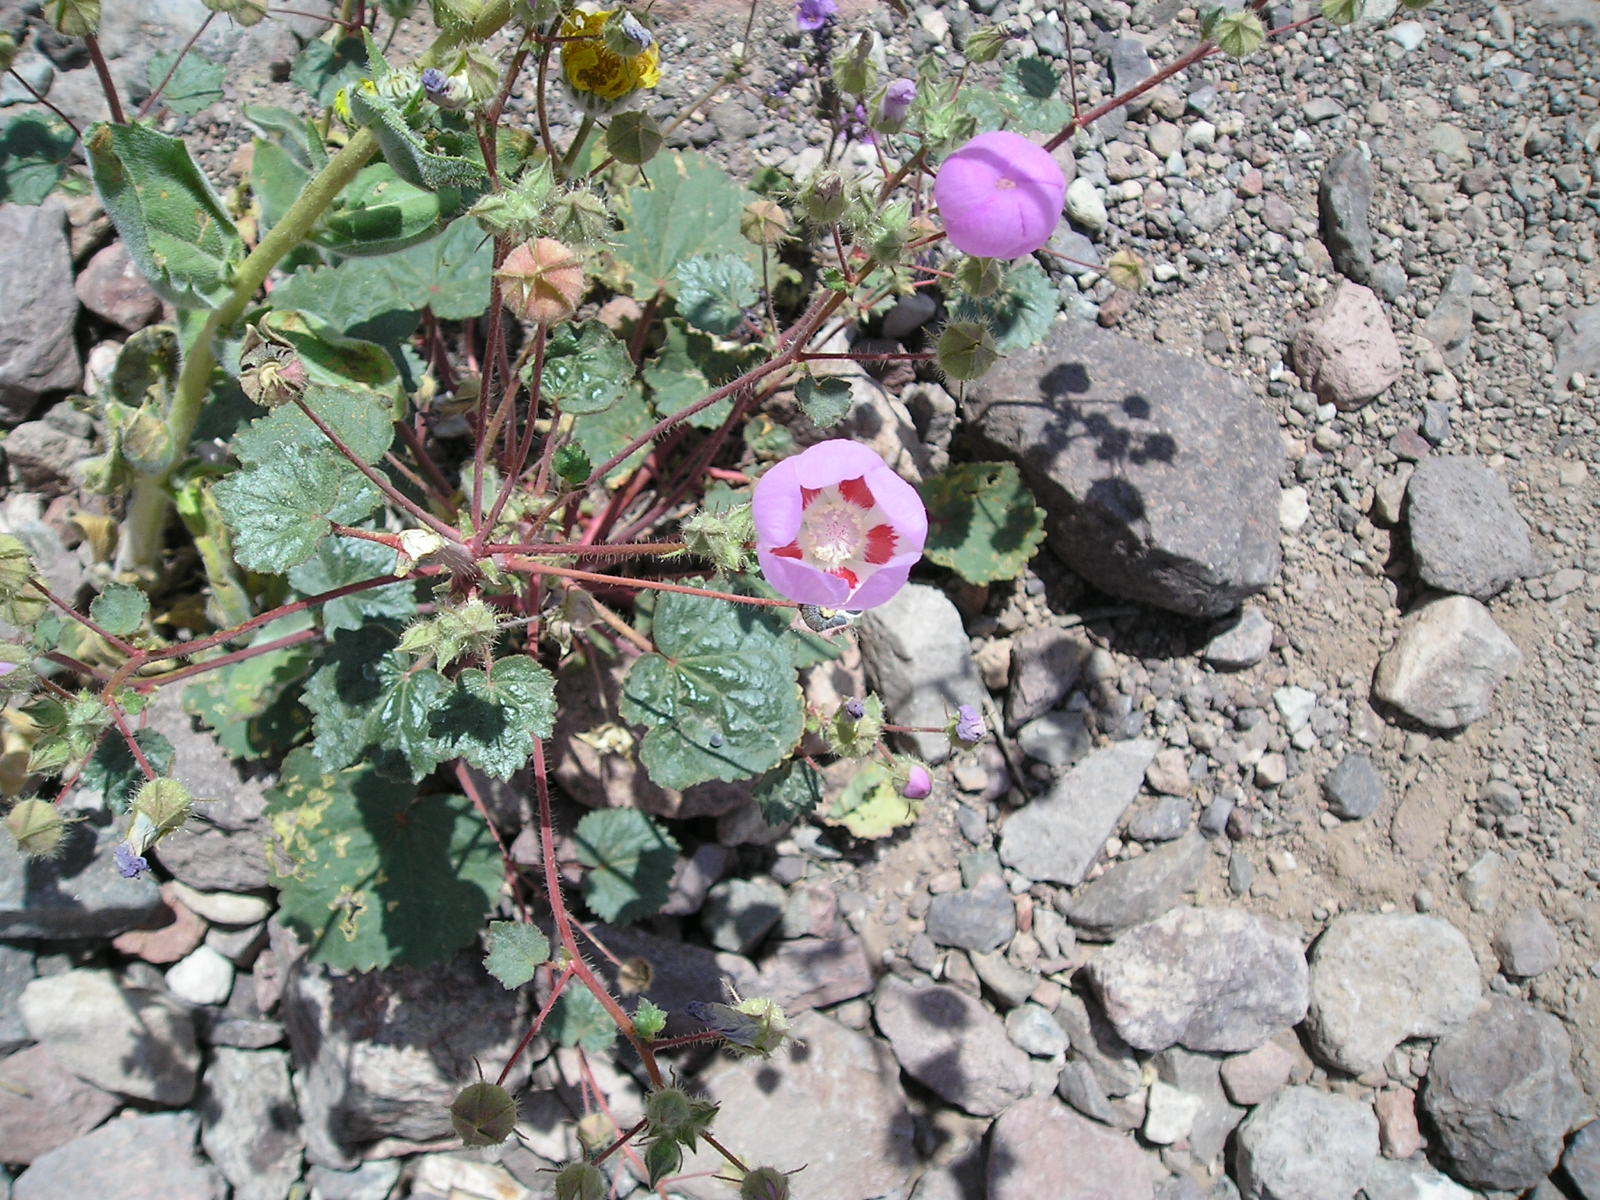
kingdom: Plantae
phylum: Tracheophyta
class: Magnoliopsida
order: Malvales
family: Malvaceae
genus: Eremalche
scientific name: Eremalche rotundifolia
